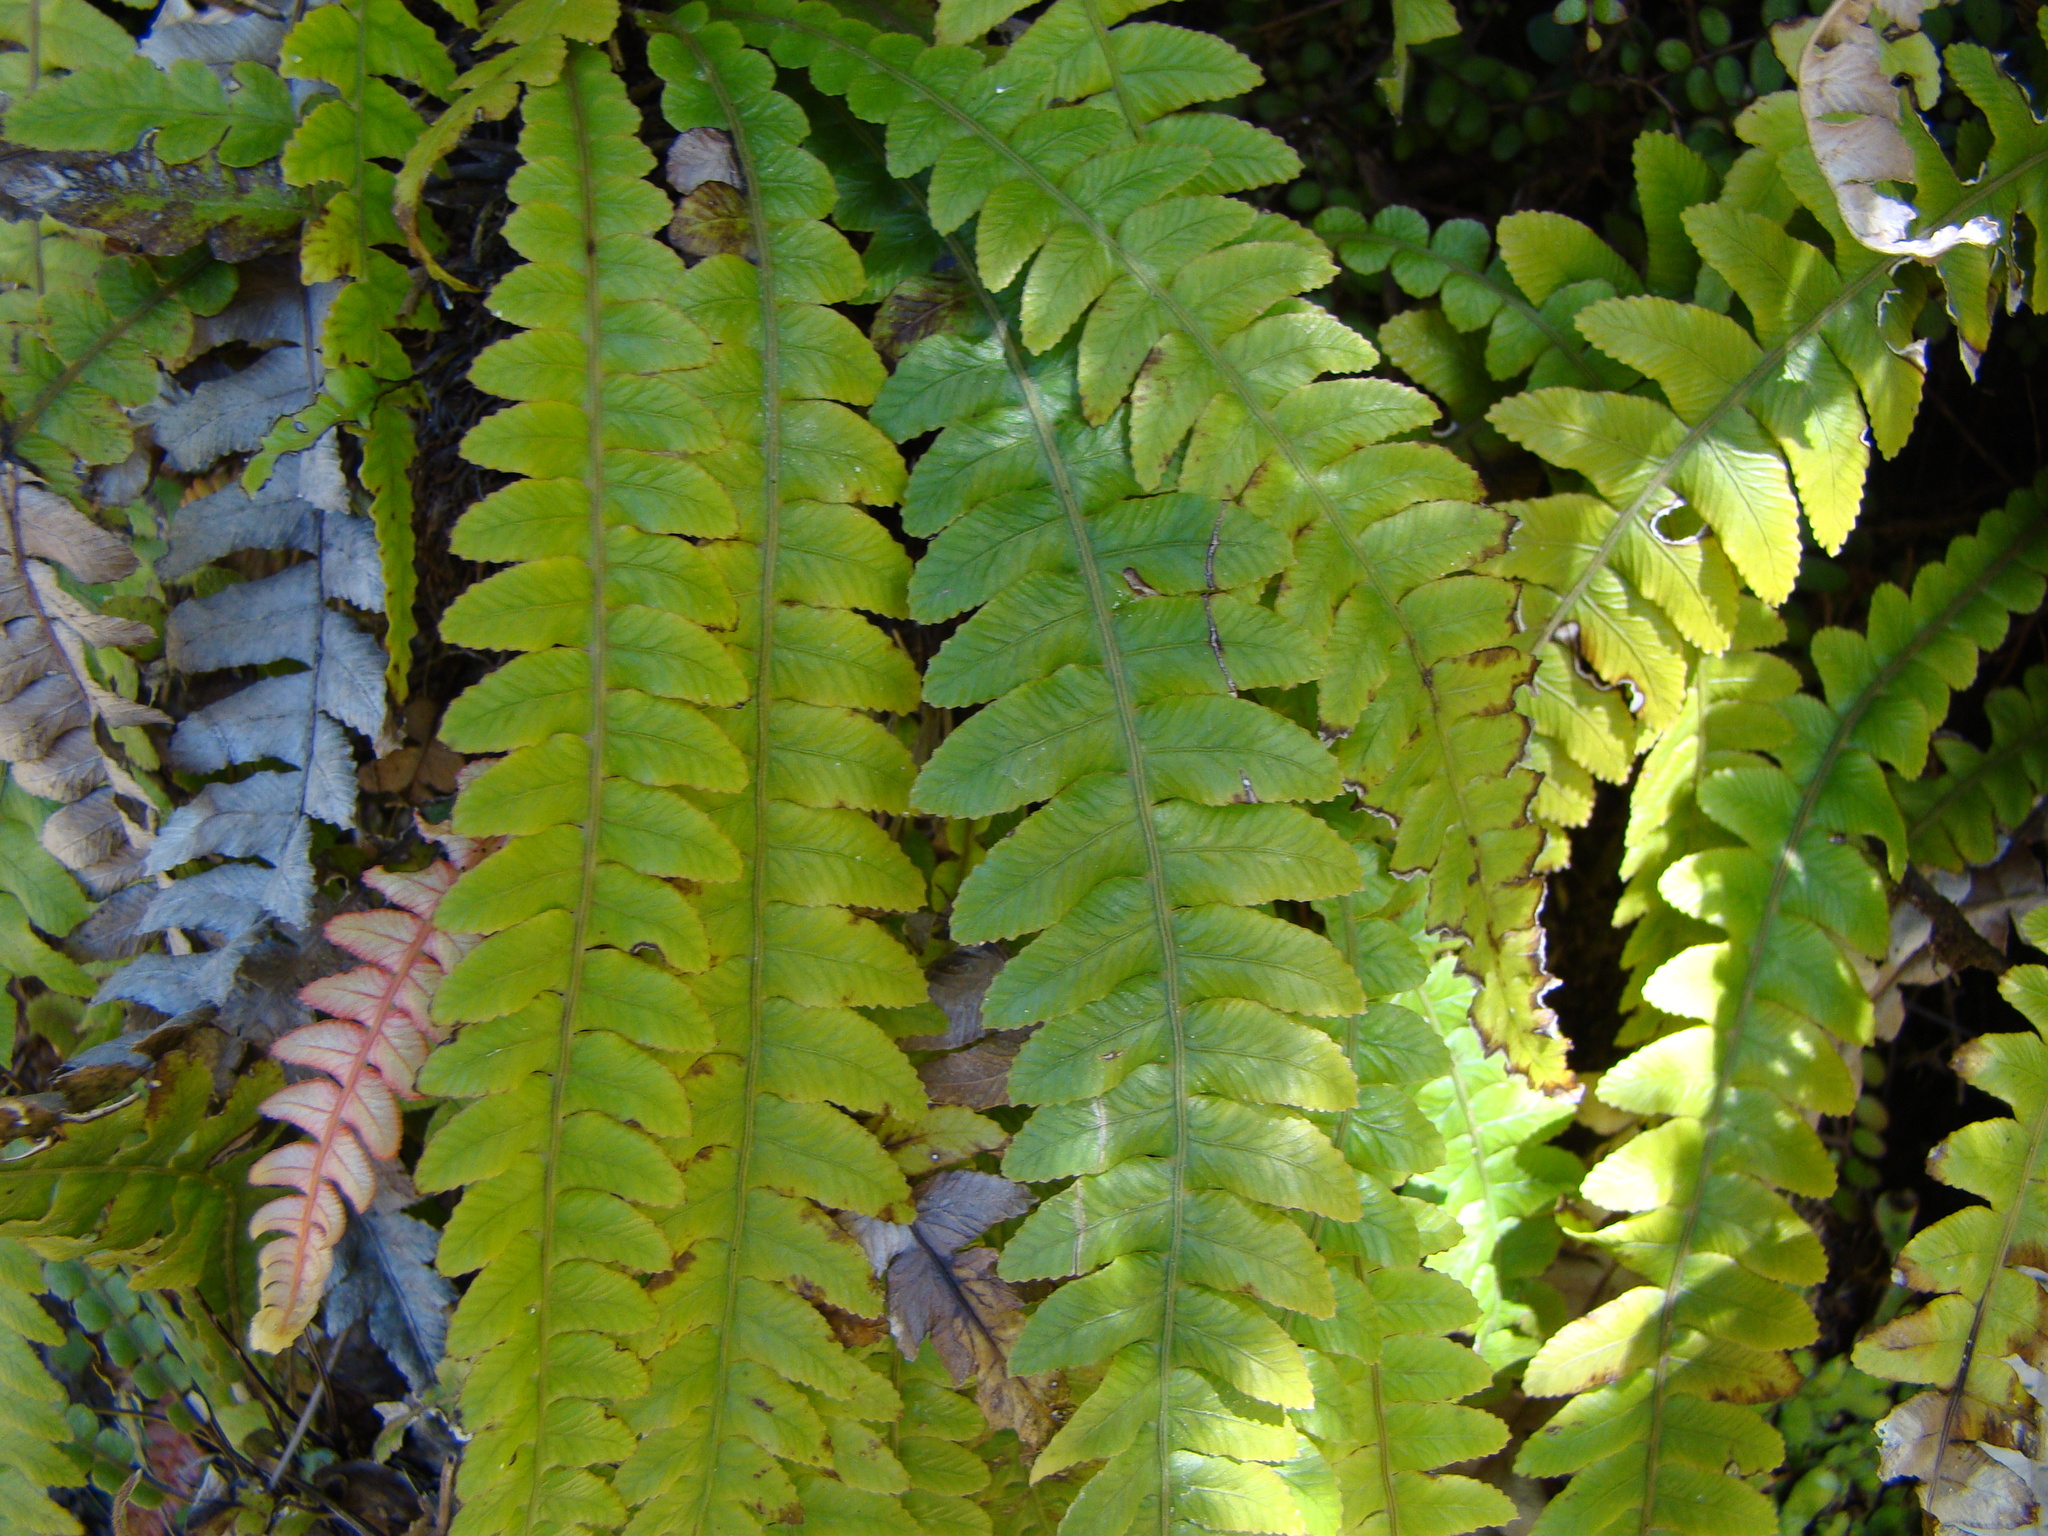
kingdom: Plantae
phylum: Tracheophyta
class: Polypodiopsida
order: Polypodiales
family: Blechnaceae
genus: Austroblechnum
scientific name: Austroblechnum lanceolatum
